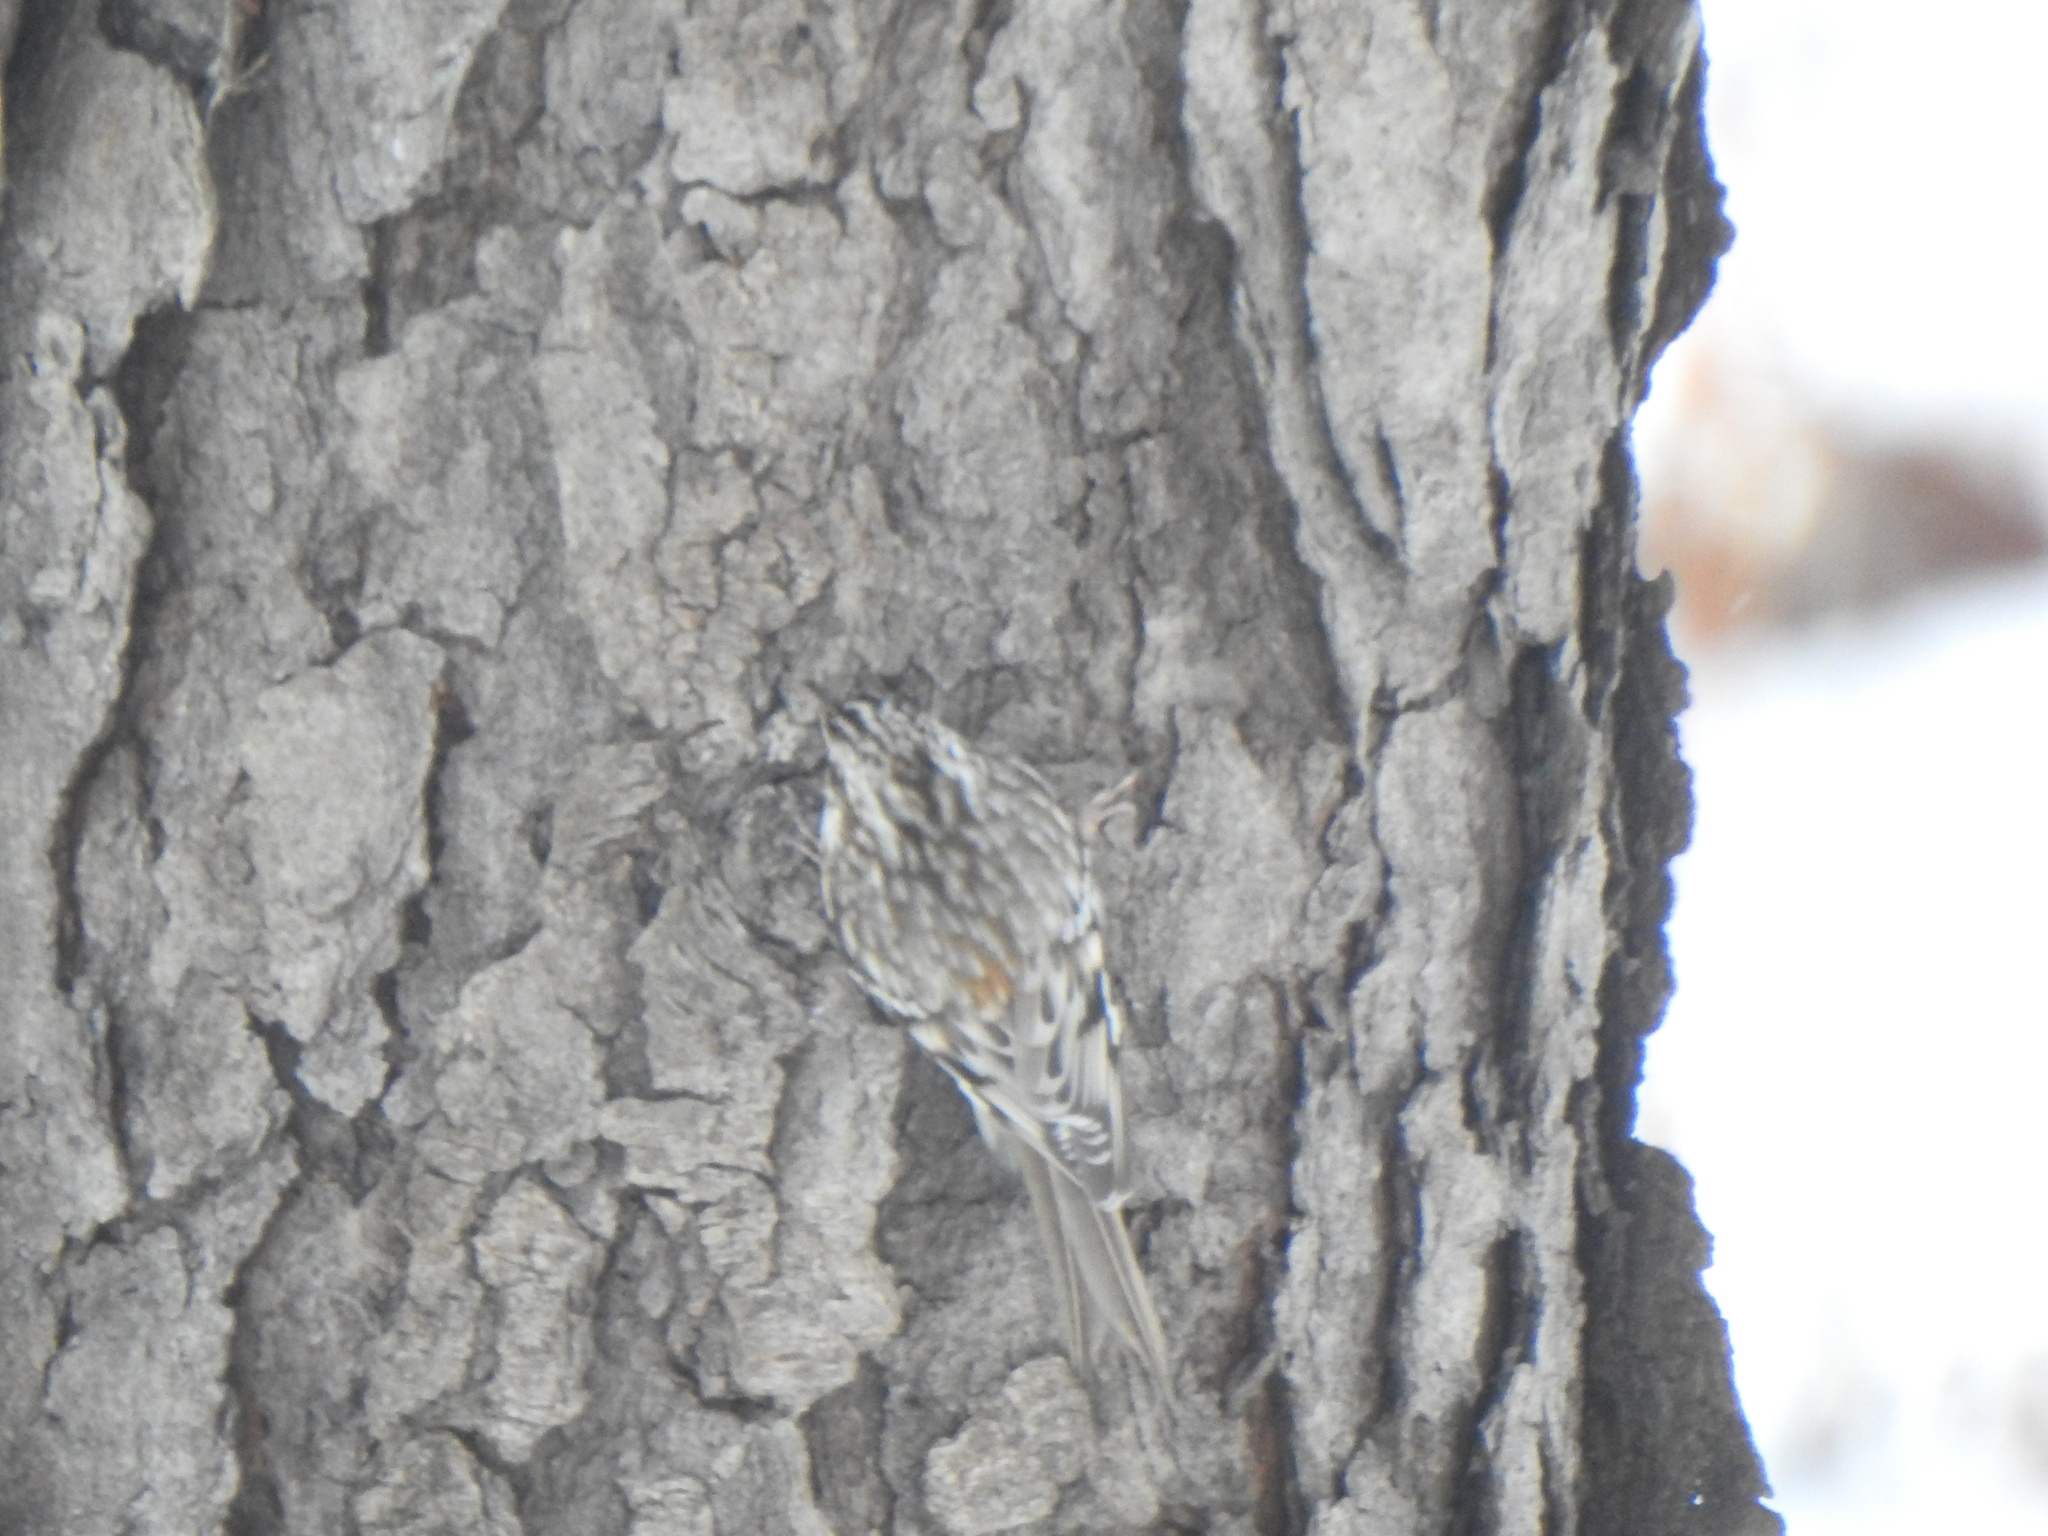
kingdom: Animalia
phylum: Chordata
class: Aves
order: Passeriformes
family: Certhiidae
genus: Certhia
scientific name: Certhia americana
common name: Brown creeper
